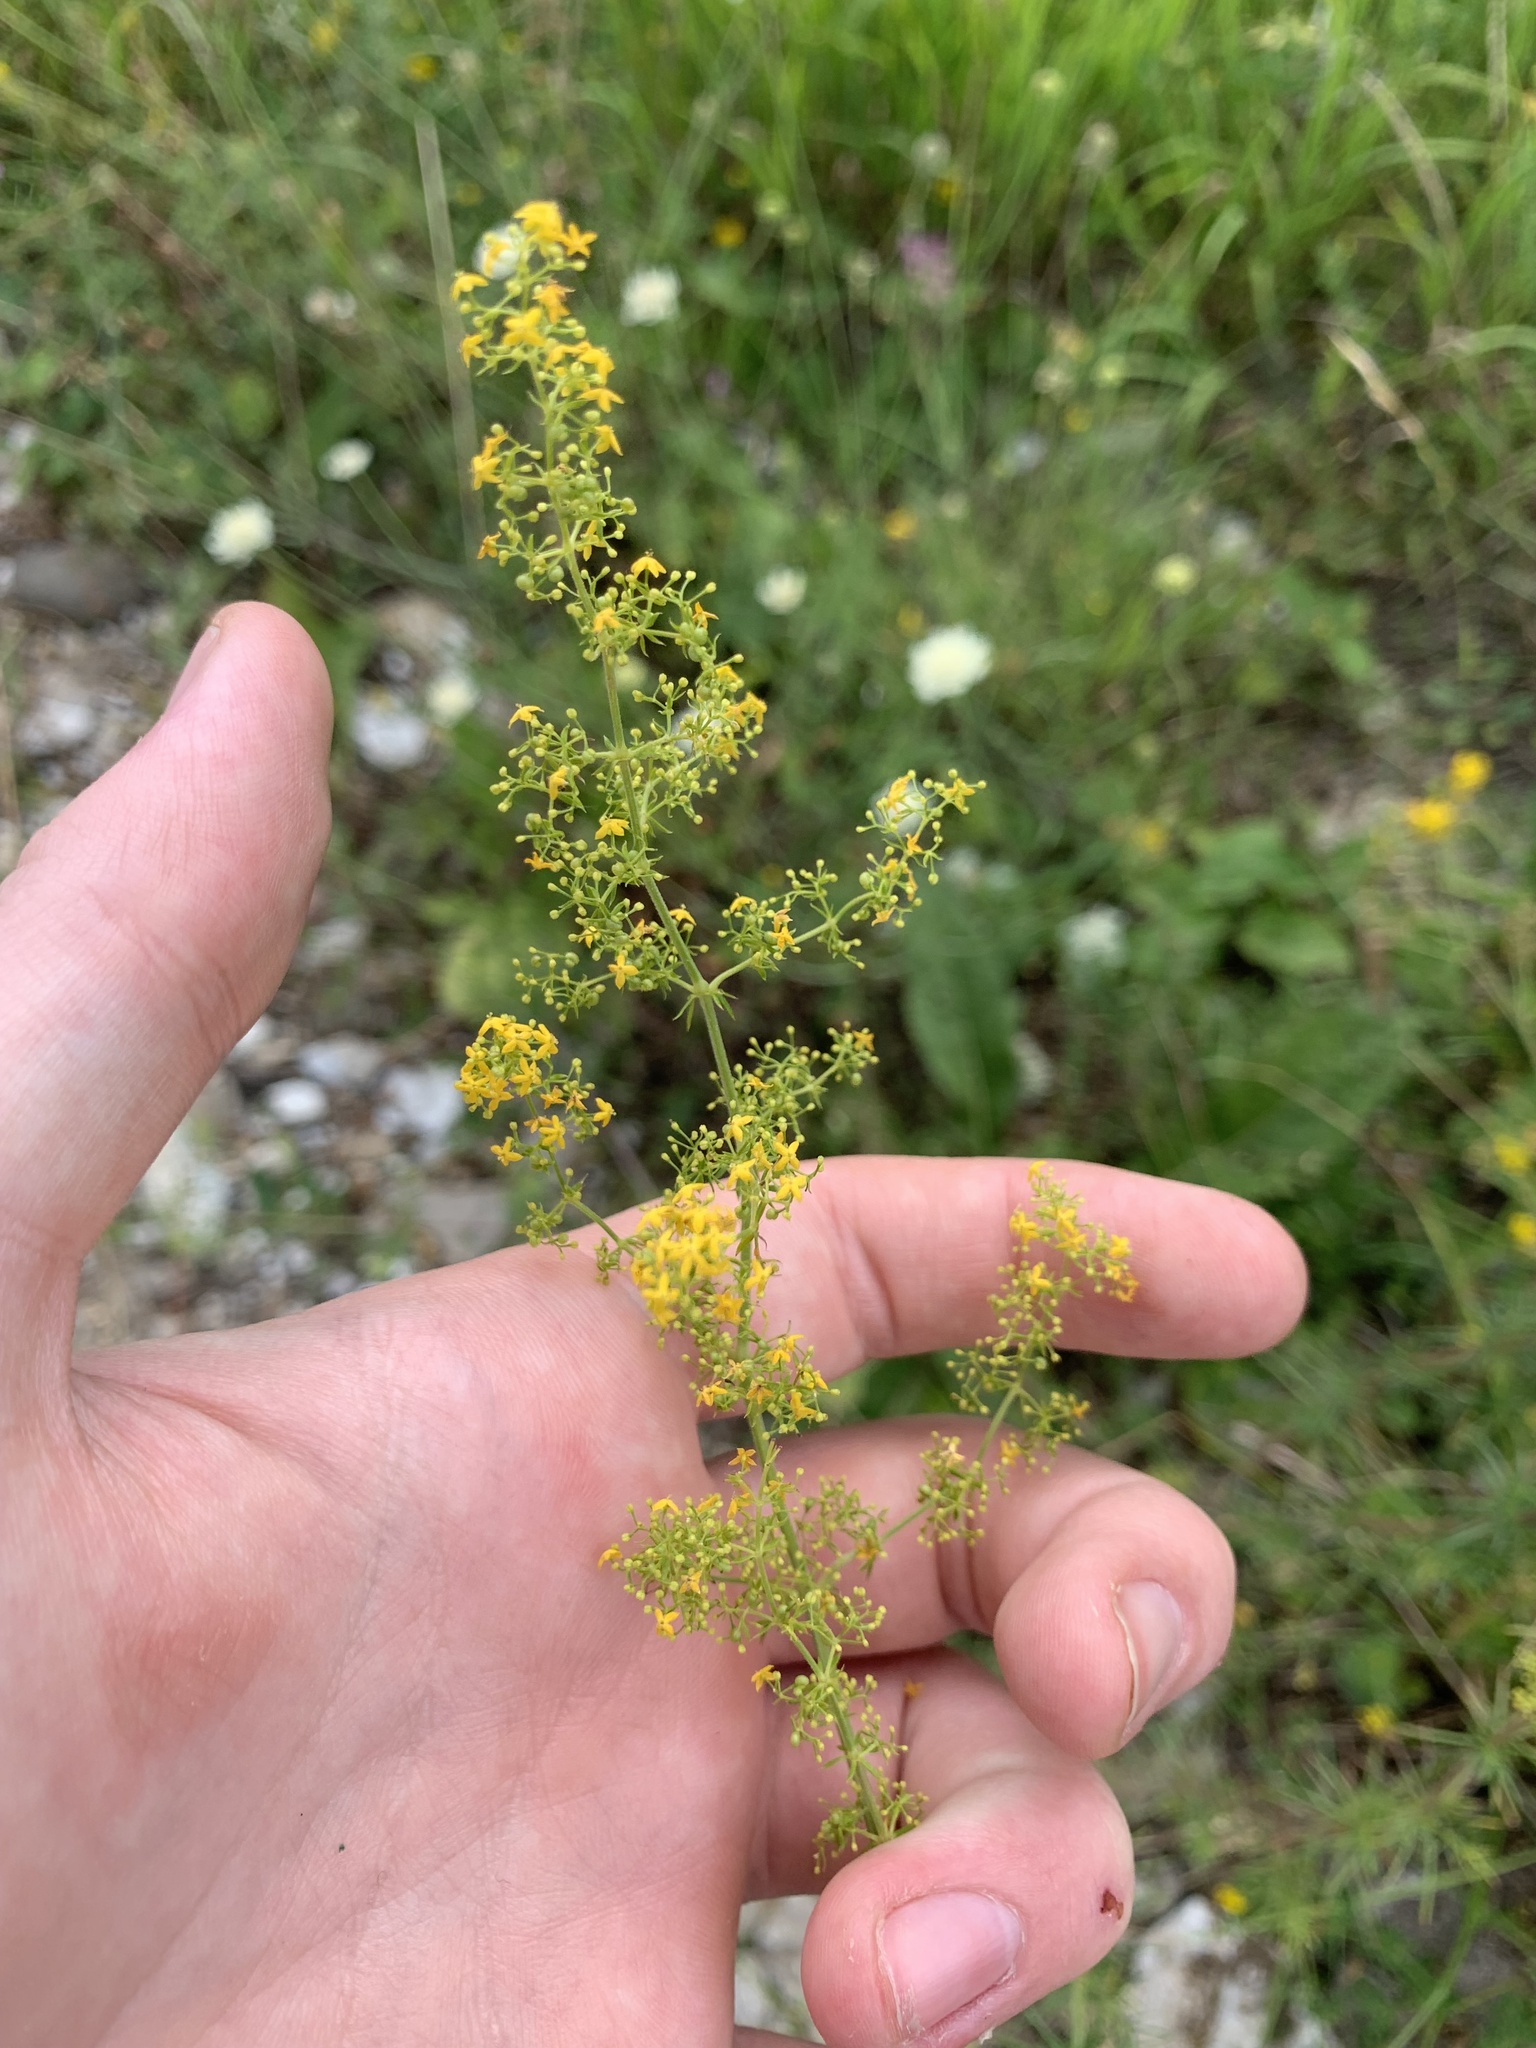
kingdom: Plantae
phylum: Tracheophyta
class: Magnoliopsida
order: Gentianales
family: Rubiaceae
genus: Galium
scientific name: Galium verum
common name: Lady's bedstraw
